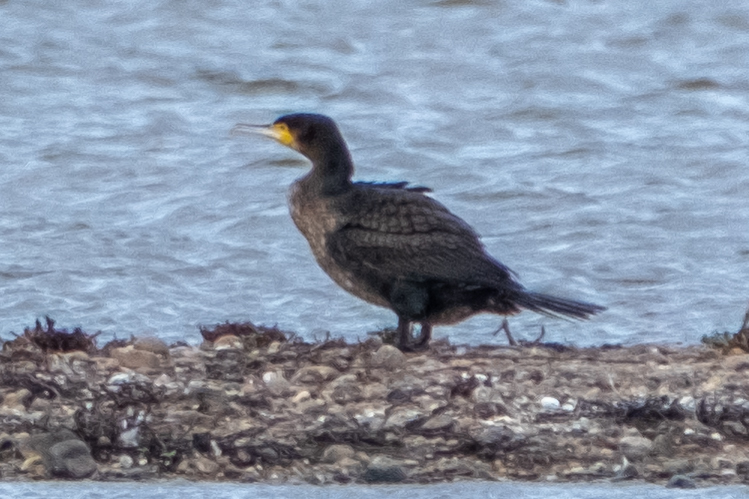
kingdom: Animalia
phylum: Chordata
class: Aves
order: Suliformes
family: Phalacrocoracidae
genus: Phalacrocorax
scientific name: Phalacrocorax carbo
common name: Great cormorant
